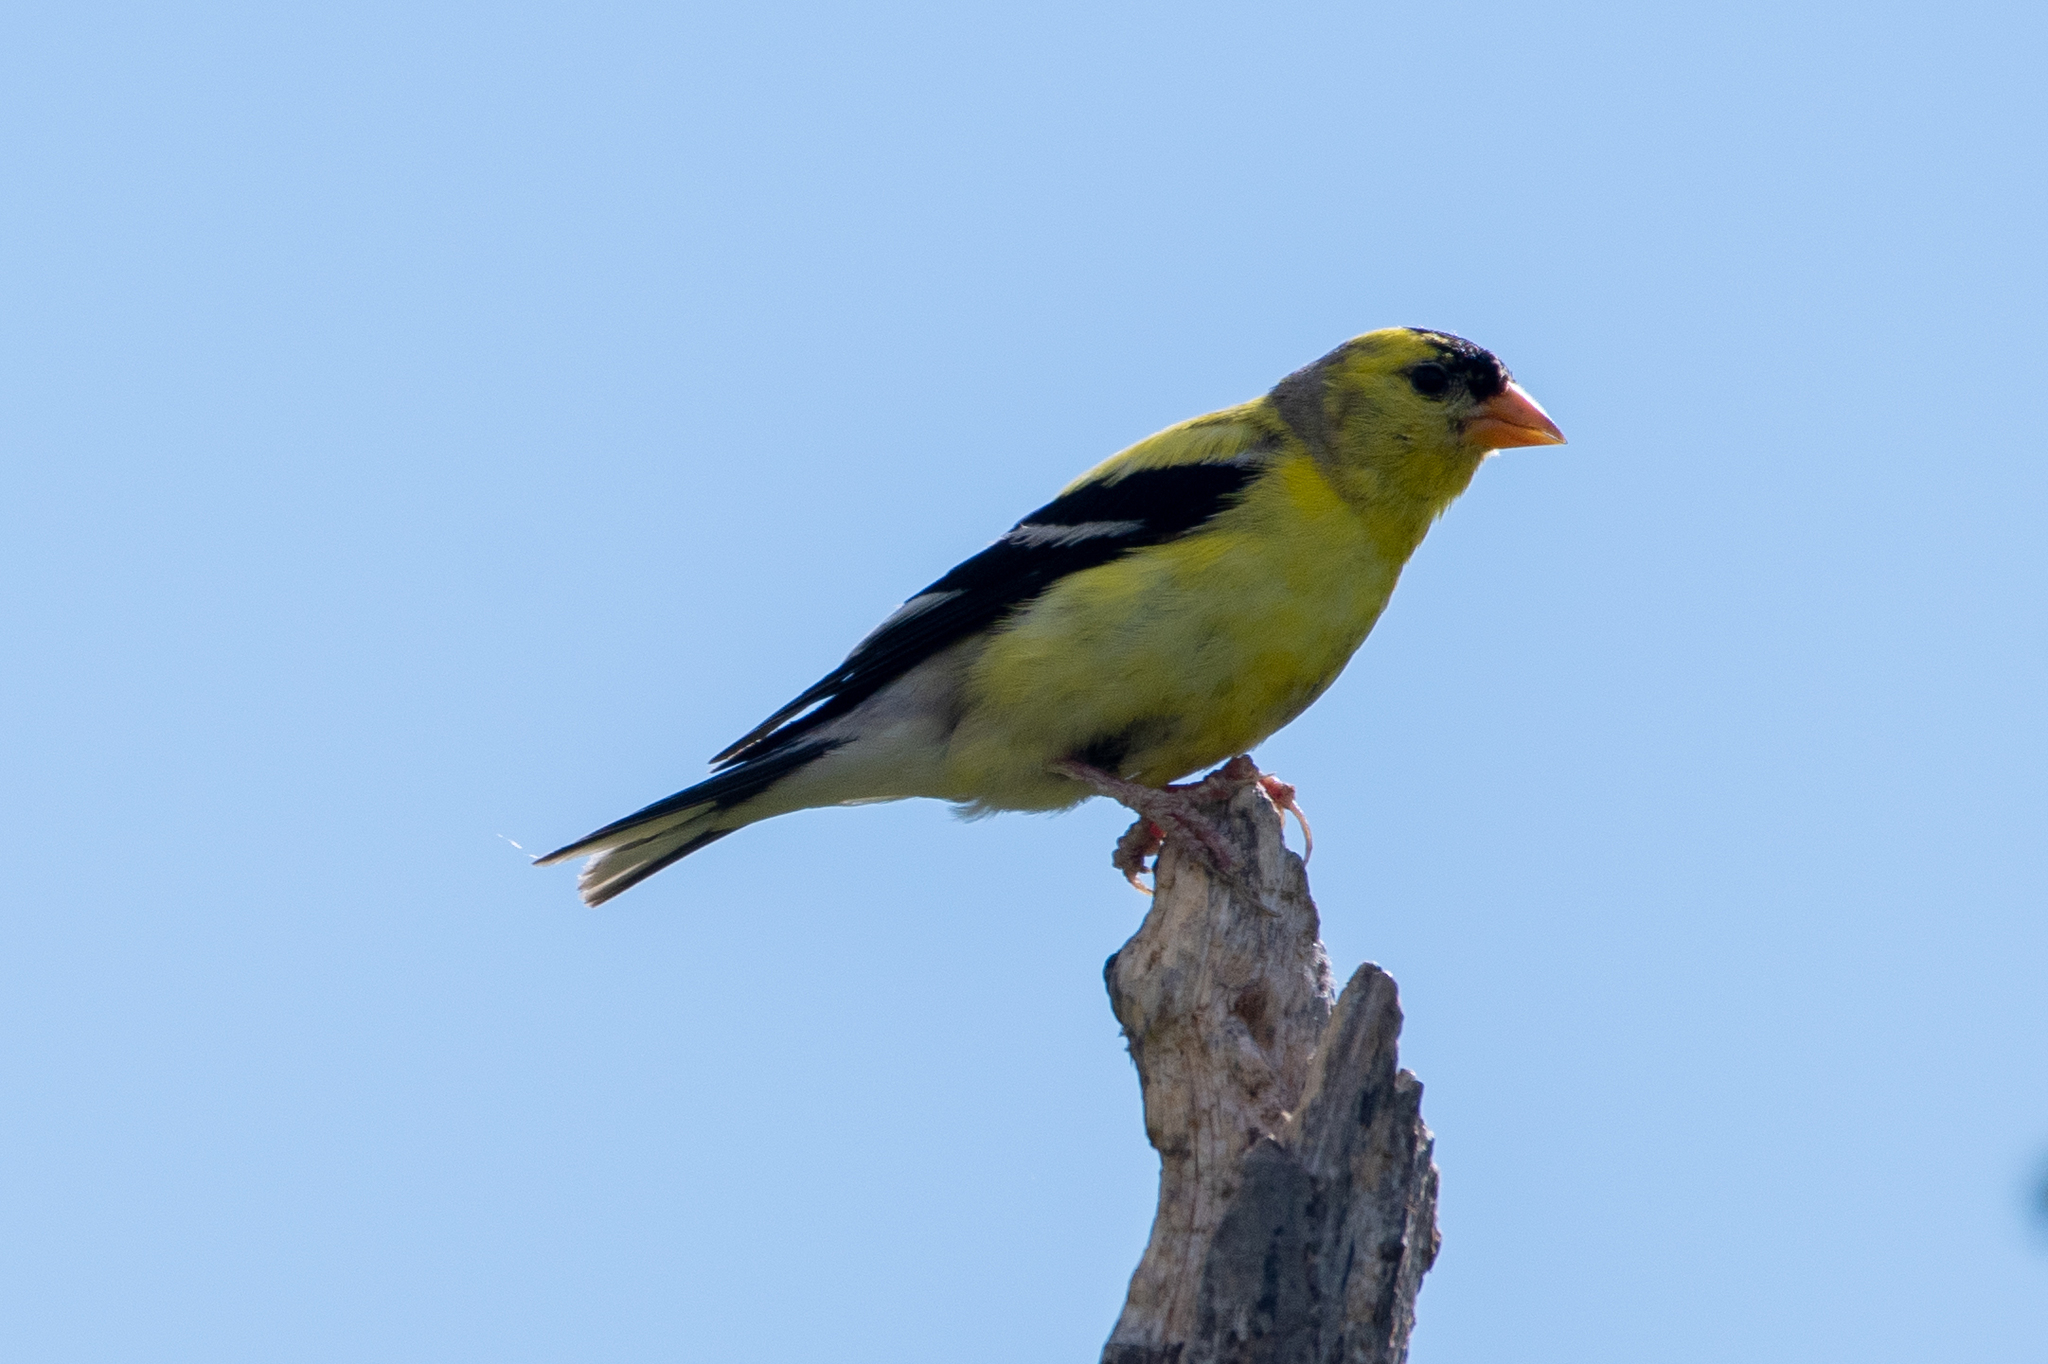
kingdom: Animalia
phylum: Chordata
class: Aves
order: Passeriformes
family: Fringillidae
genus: Spinus
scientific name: Spinus tristis
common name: American goldfinch
